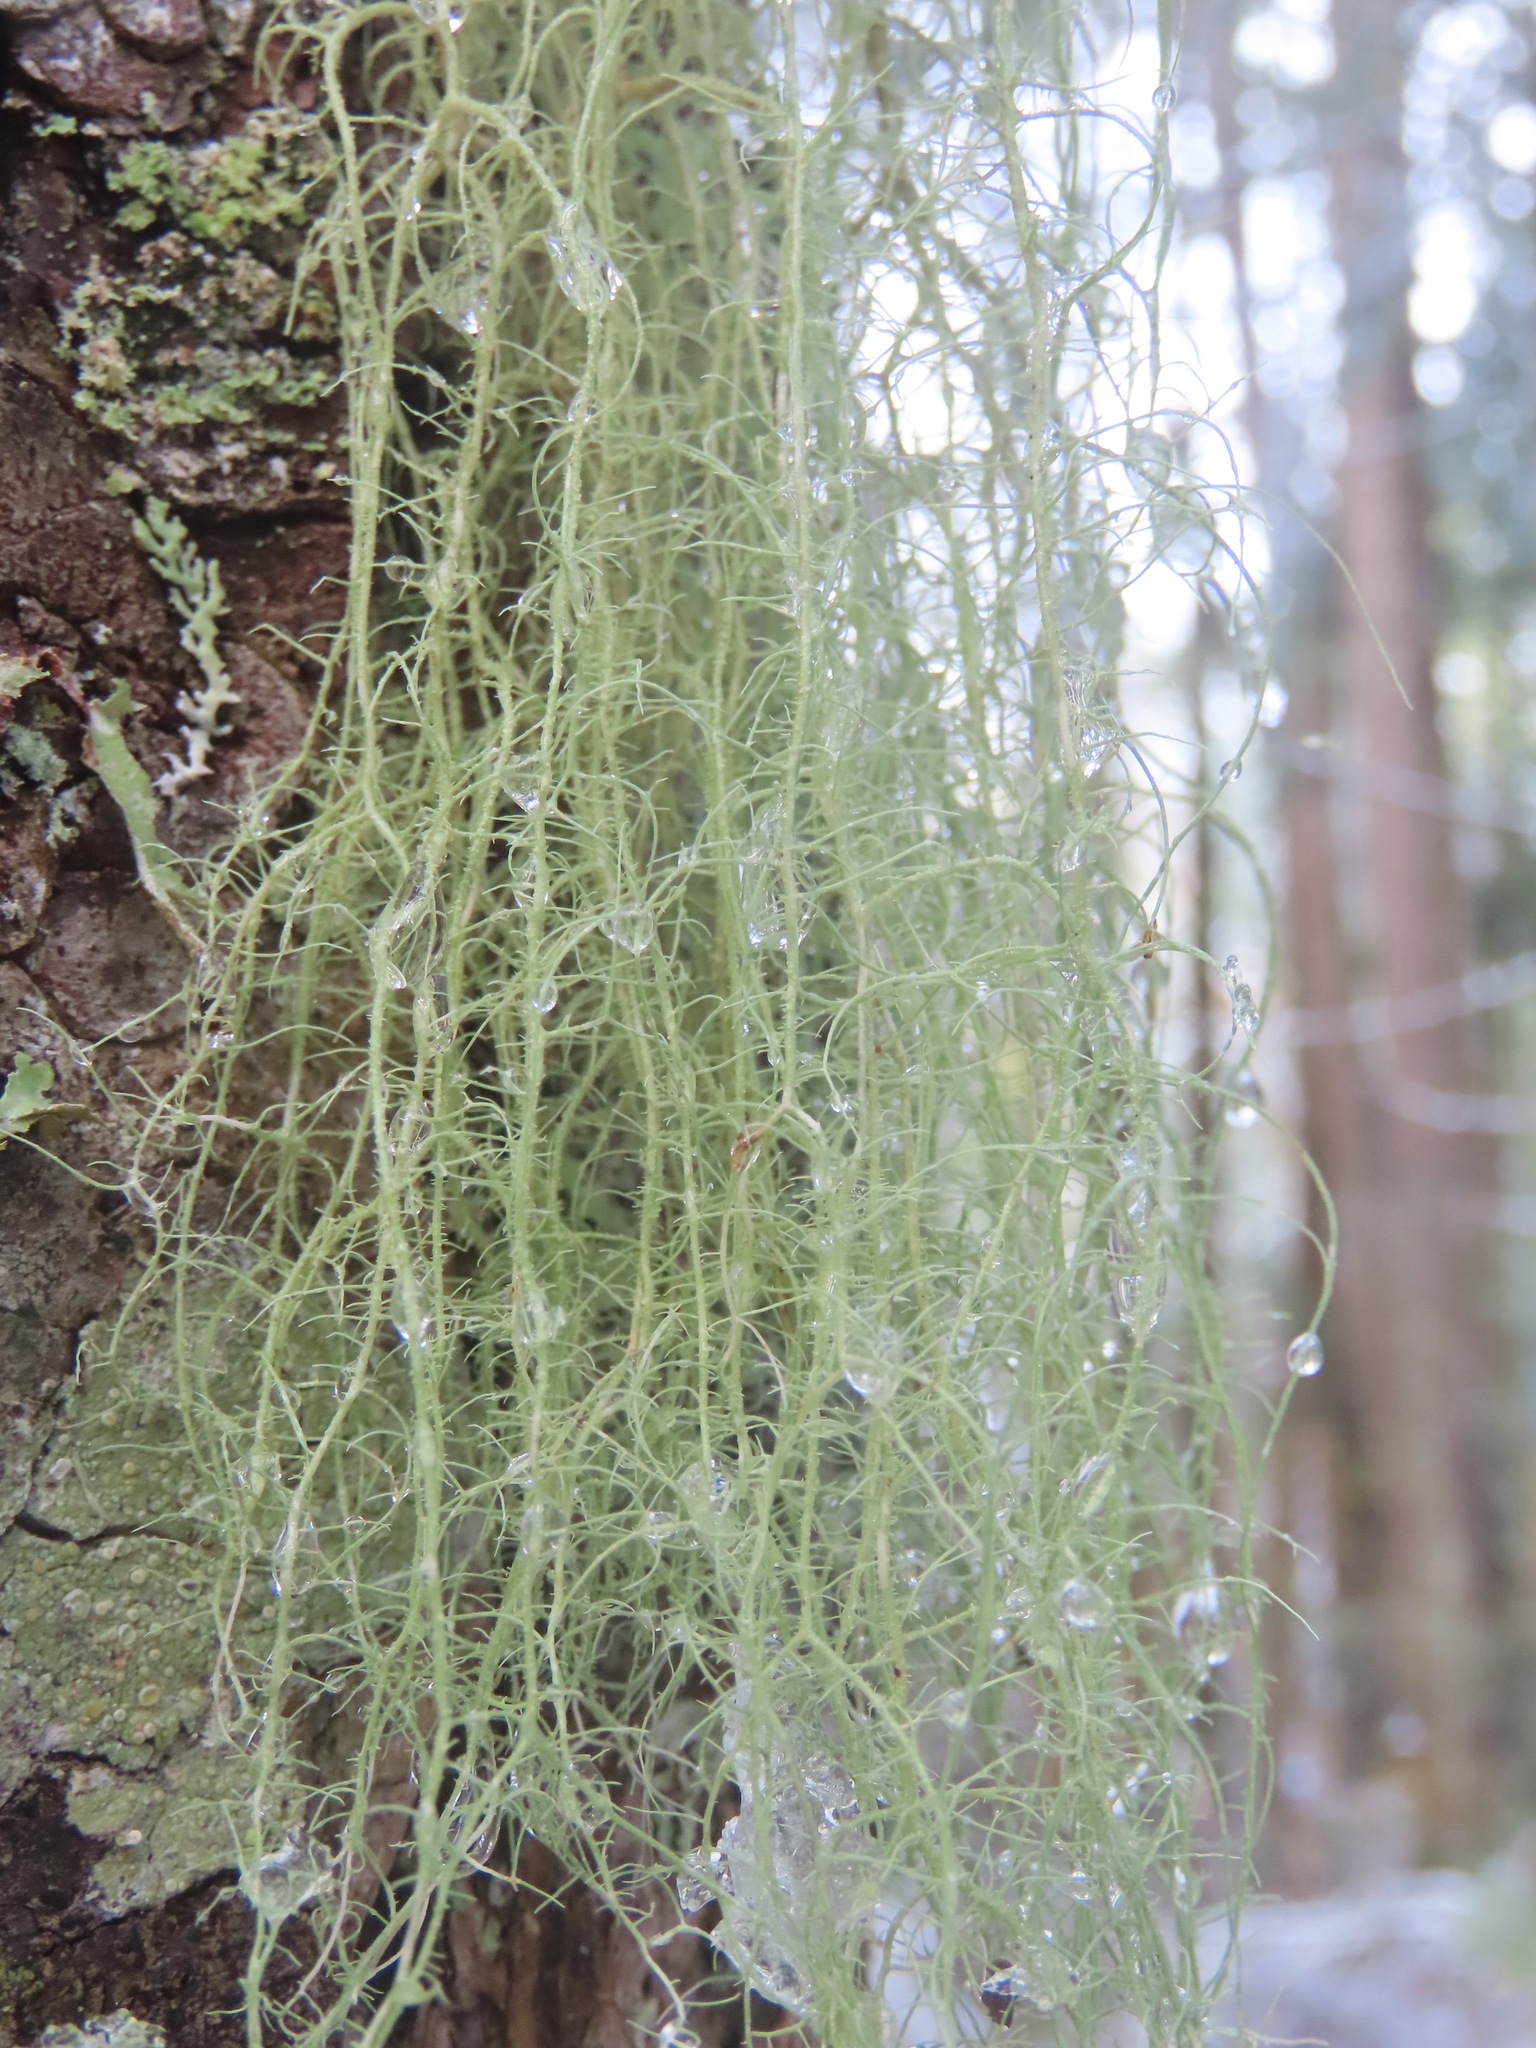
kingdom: Fungi
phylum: Ascomycota
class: Lecanoromycetes
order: Lecanorales
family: Parmeliaceae
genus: Usnea
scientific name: Usnea dasopoga
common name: Fishbone beard lichen
